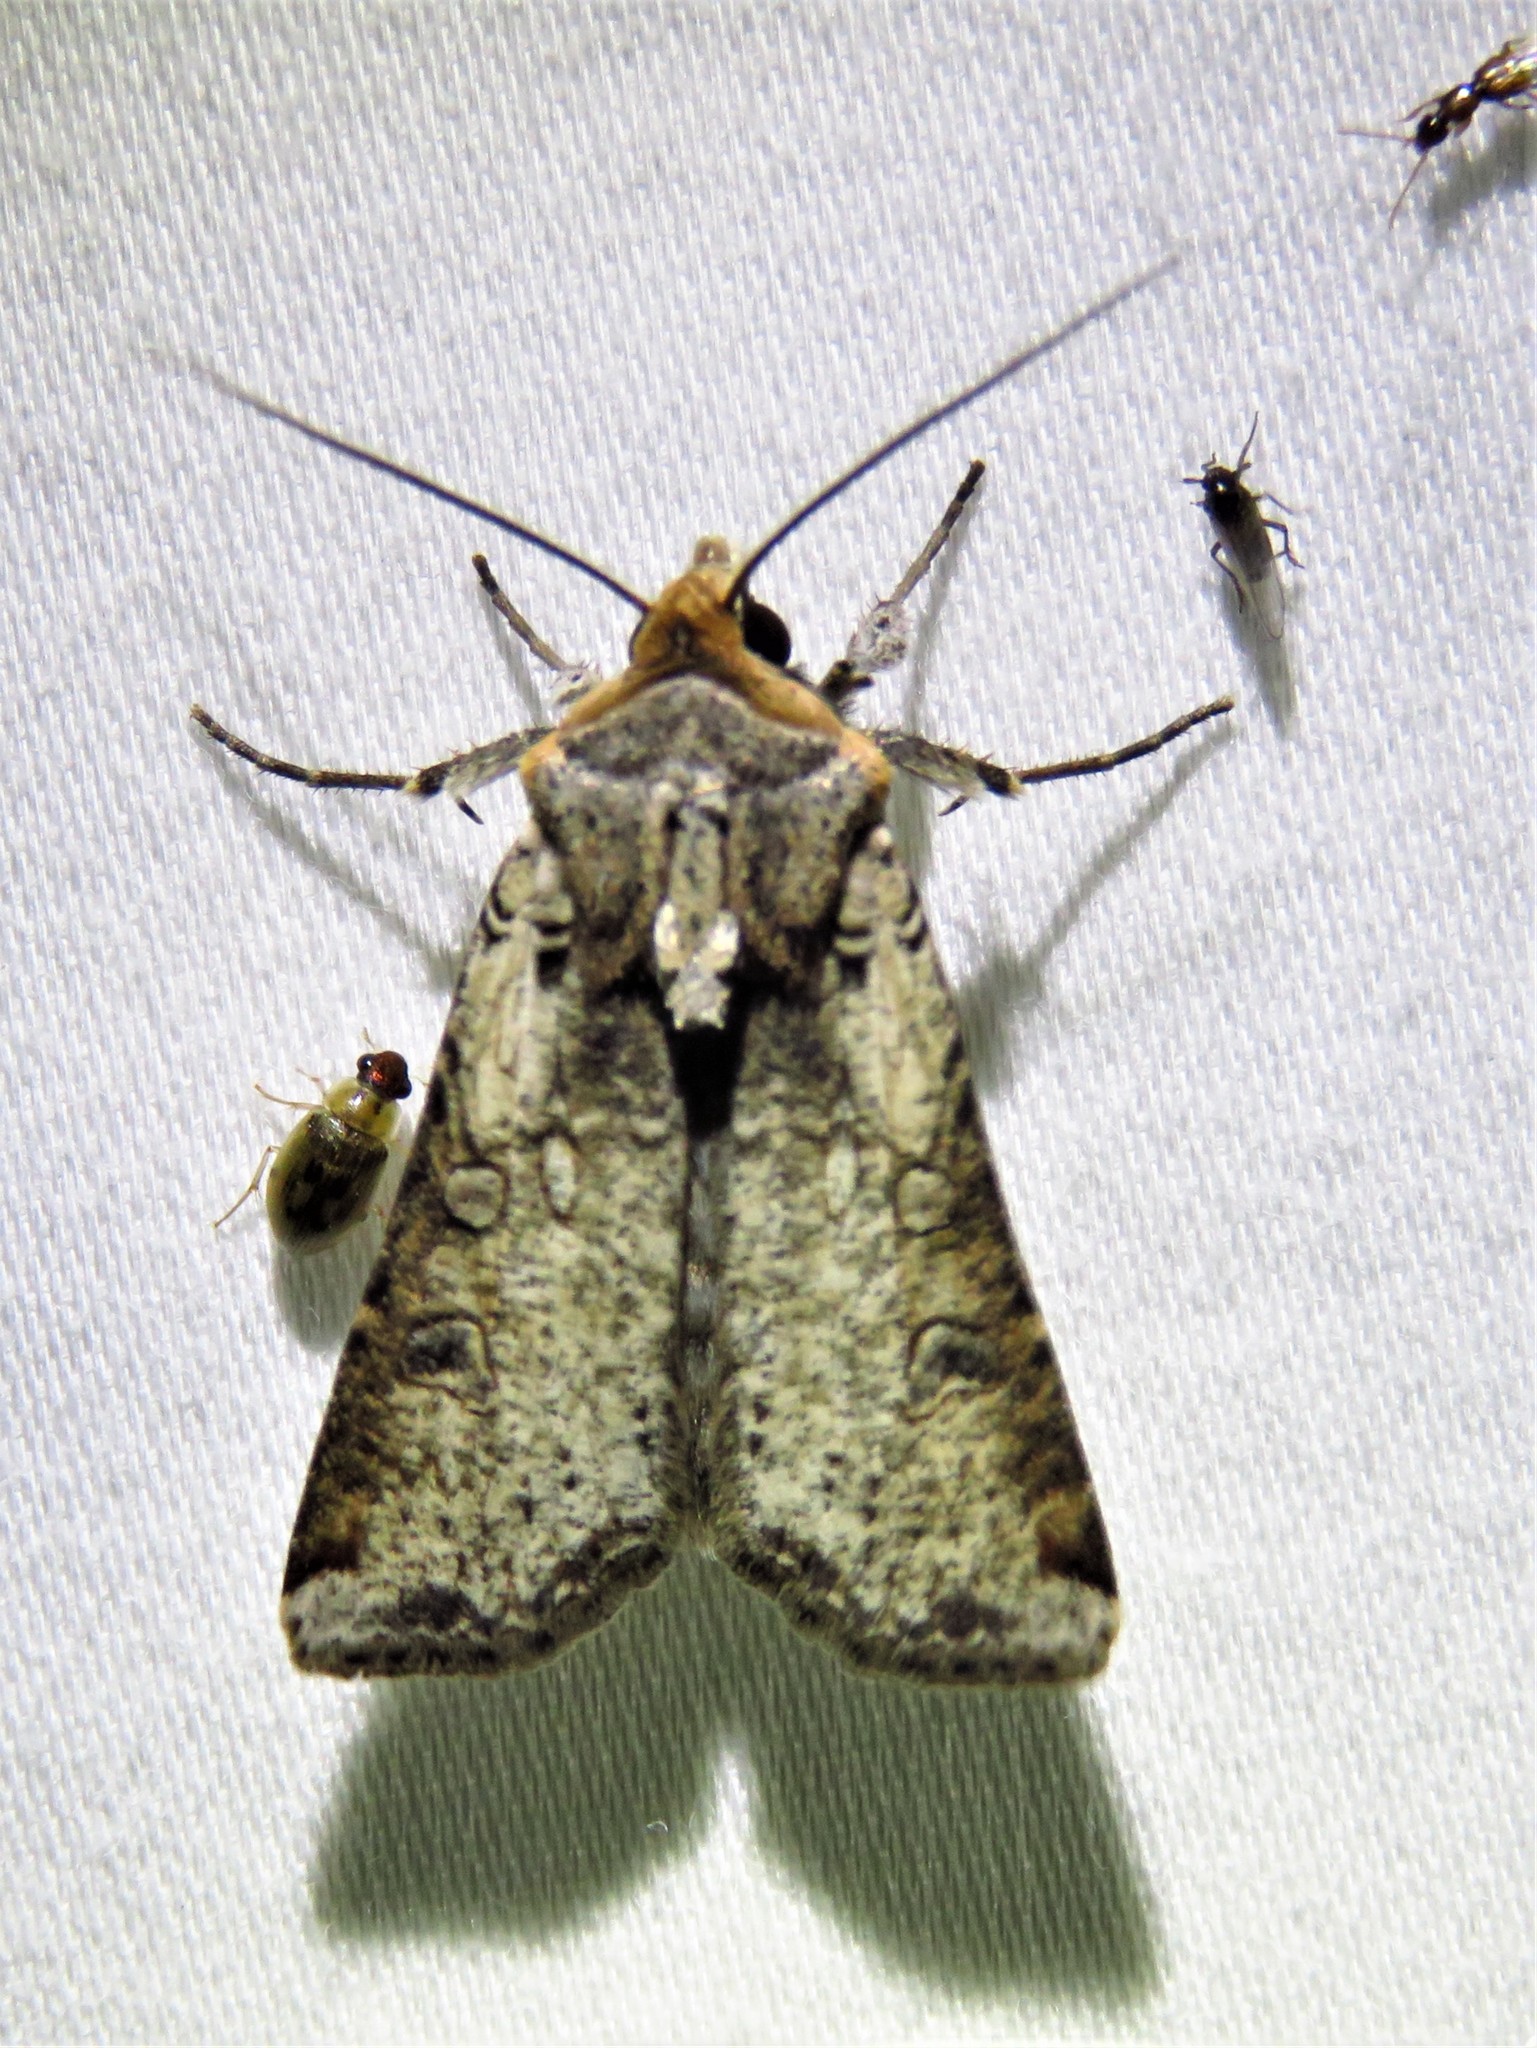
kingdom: Animalia
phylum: Arthropoda
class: Insecta
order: Lepidoptera
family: Noctuidae
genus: Hemieuxoa
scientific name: Hemieuxoa rudens
